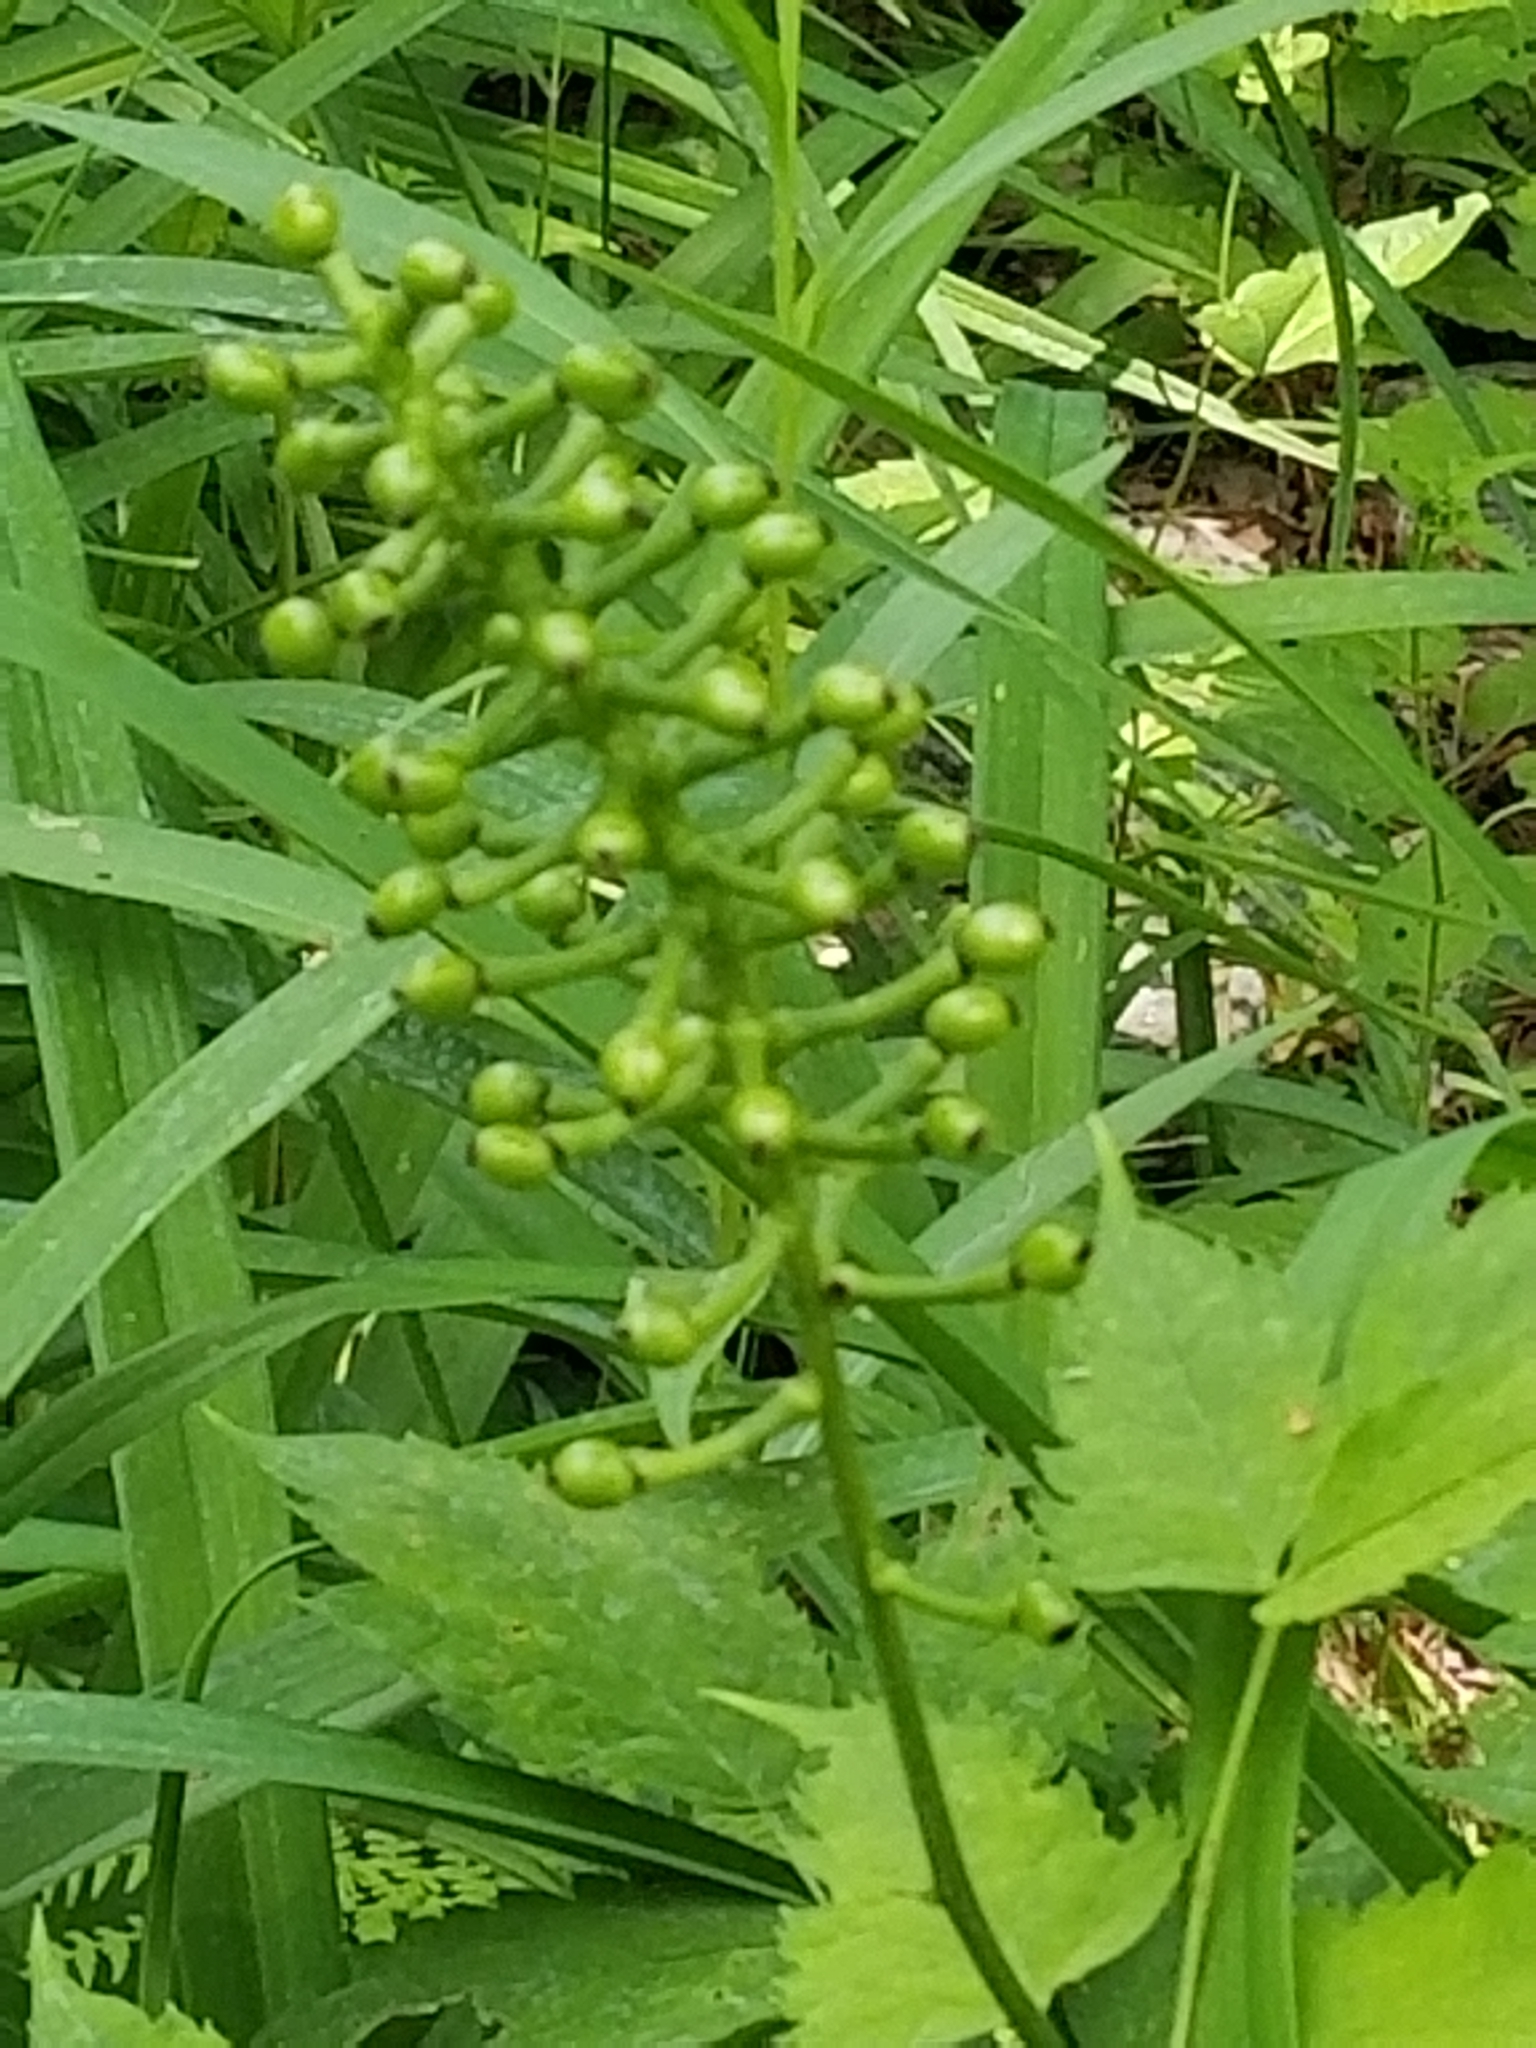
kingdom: Plantae
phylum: Tracheophyta
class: Magnoliopsida
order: Ranunculales
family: Ranunculaceae
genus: Actaea
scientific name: Actaea pachypoda
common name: Doll's-eyes
